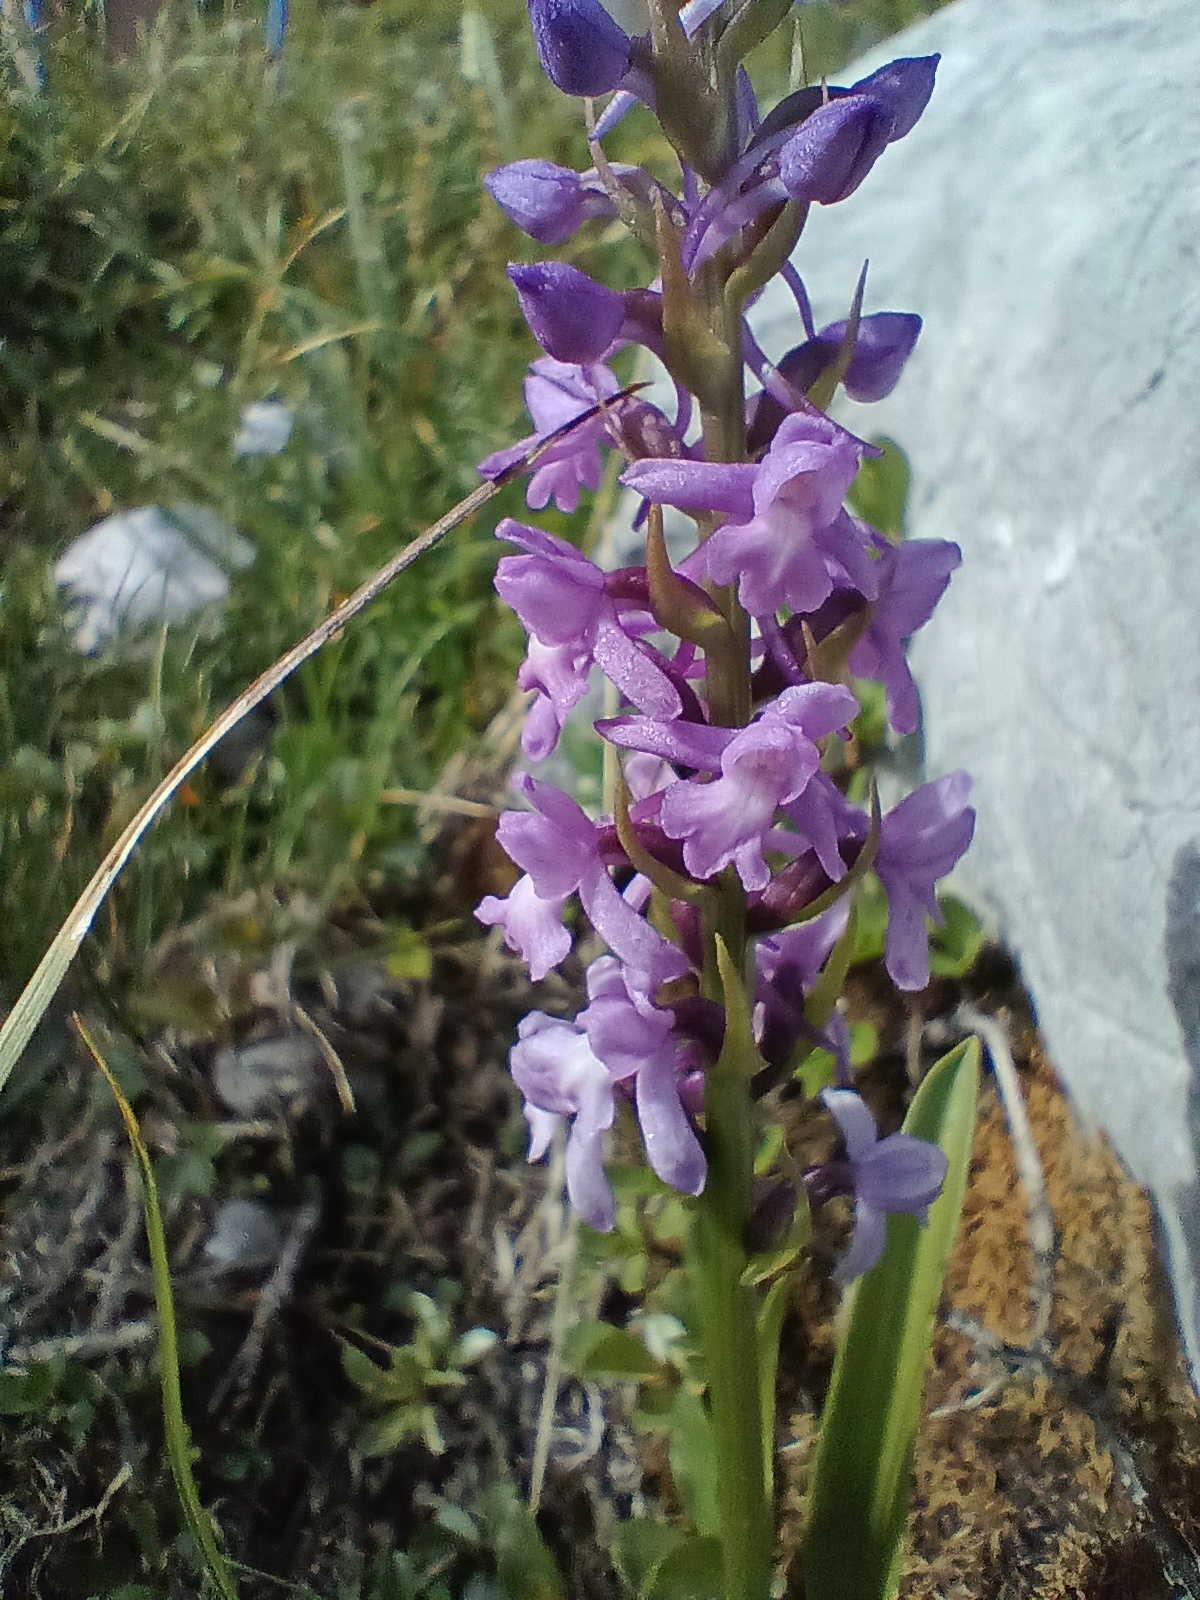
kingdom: Plantae
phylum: Tracheophyta
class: Liliopsida
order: Asparagales
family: Orchidaceae
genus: Gymnadenia
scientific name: Gymnadenia conopsea
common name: Fragrant orchid
